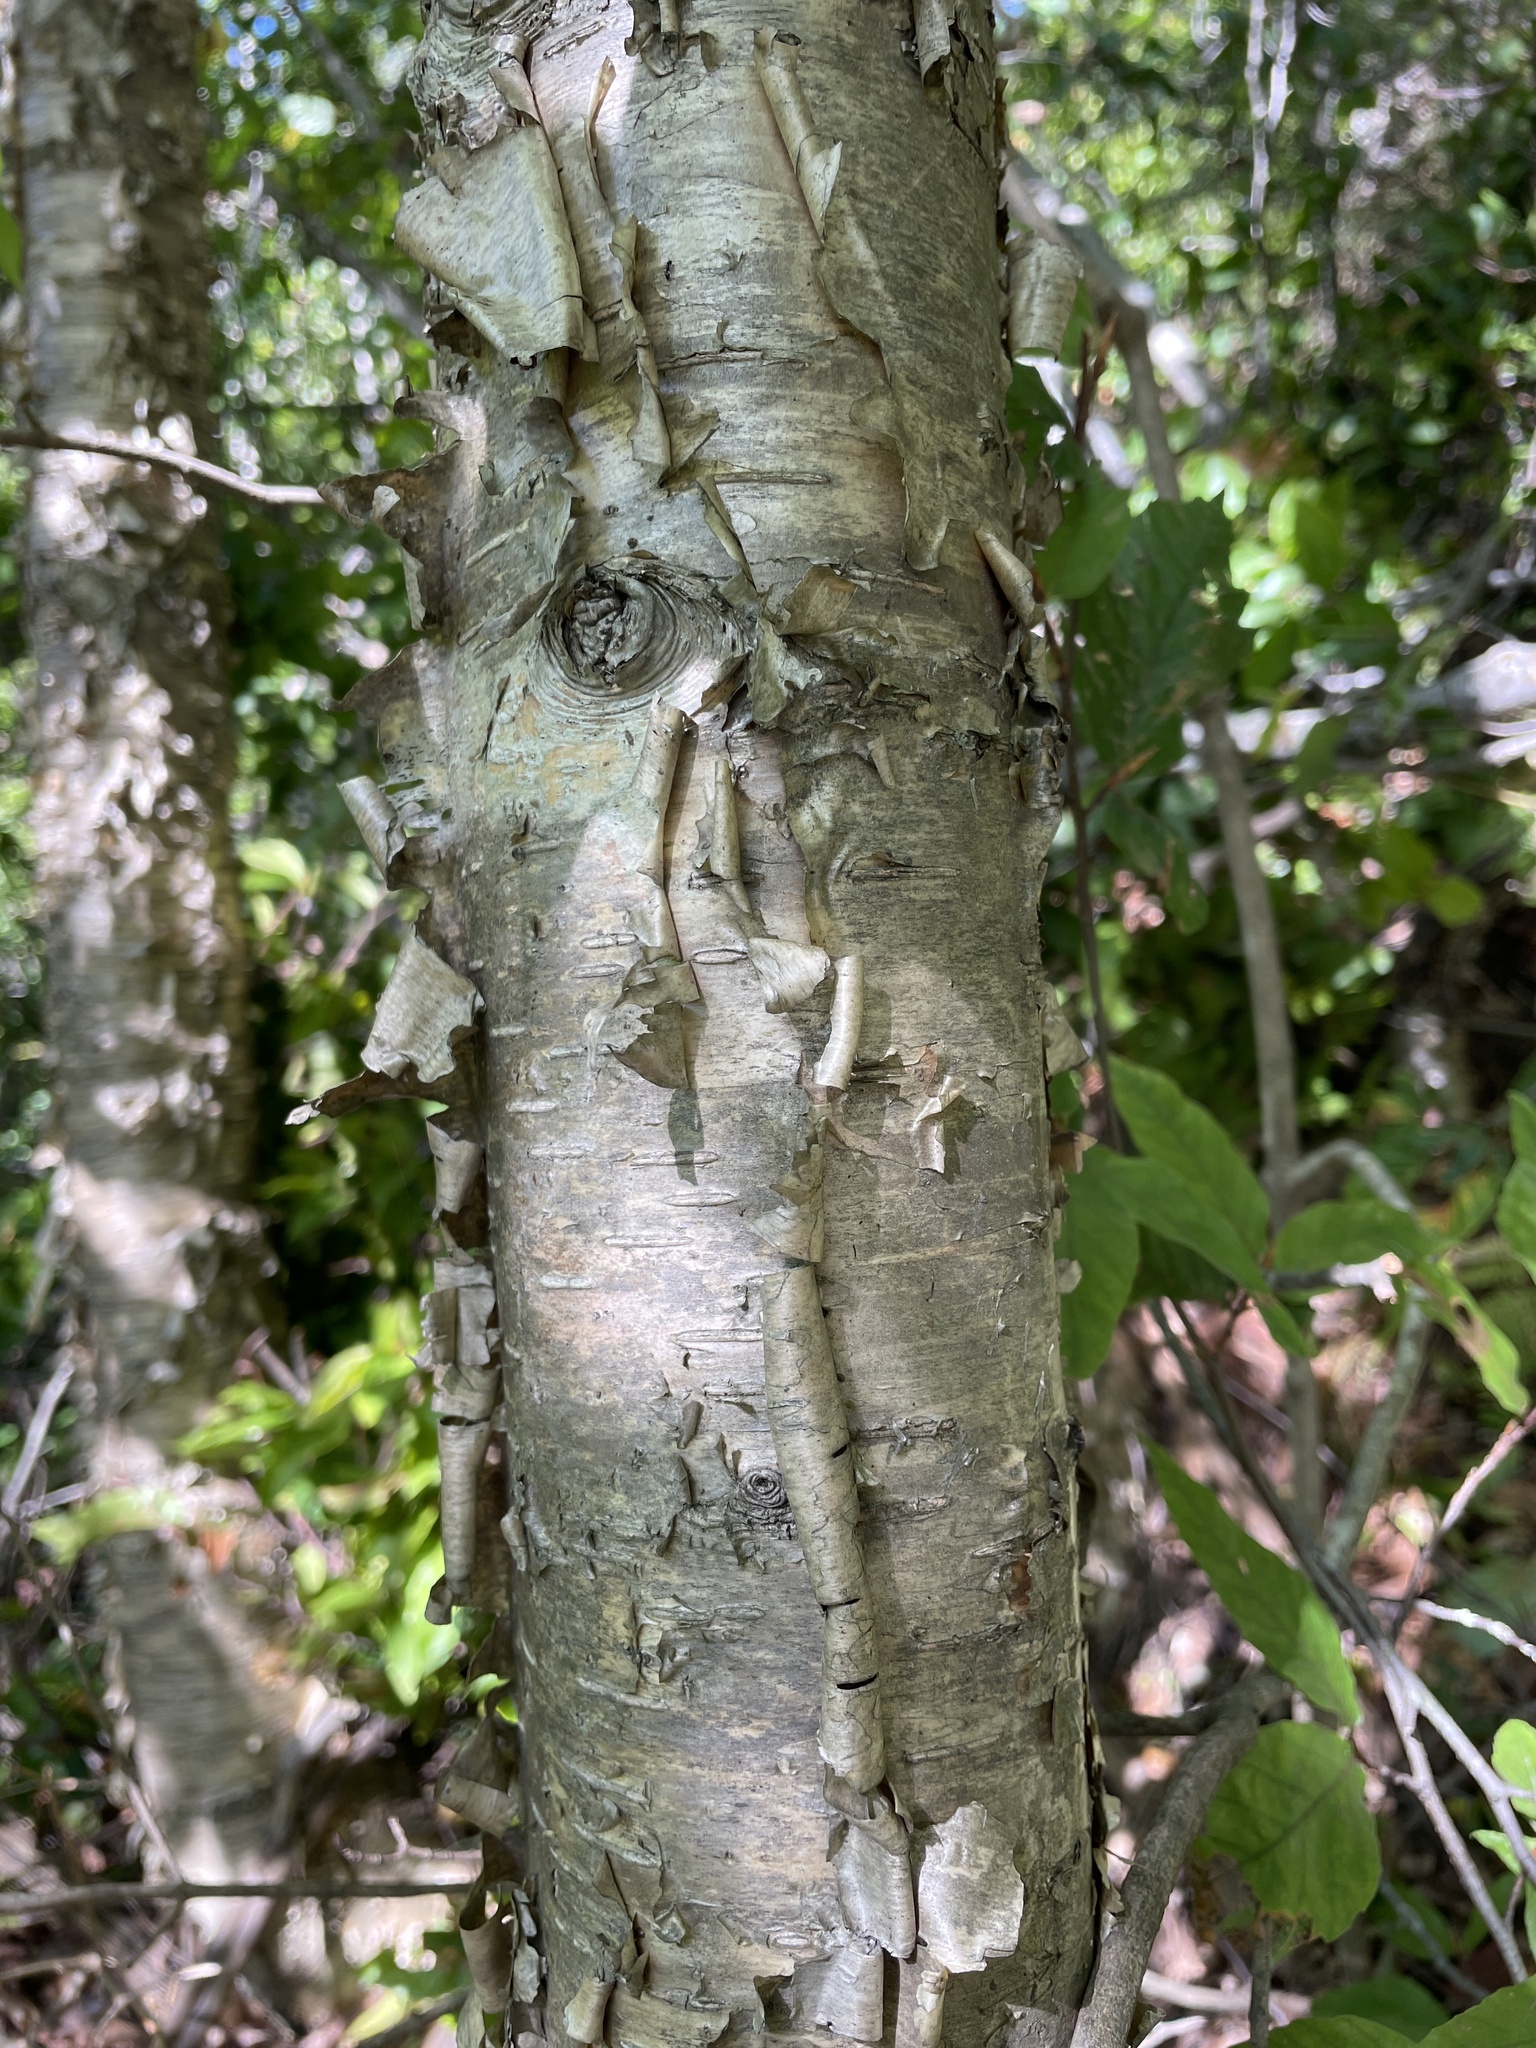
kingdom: Plantae
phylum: Tracheophyta
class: Magnoliopsida
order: Fagales
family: Betulaceae
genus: Betula
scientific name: Betula alleghaniensis
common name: Yellow birch
